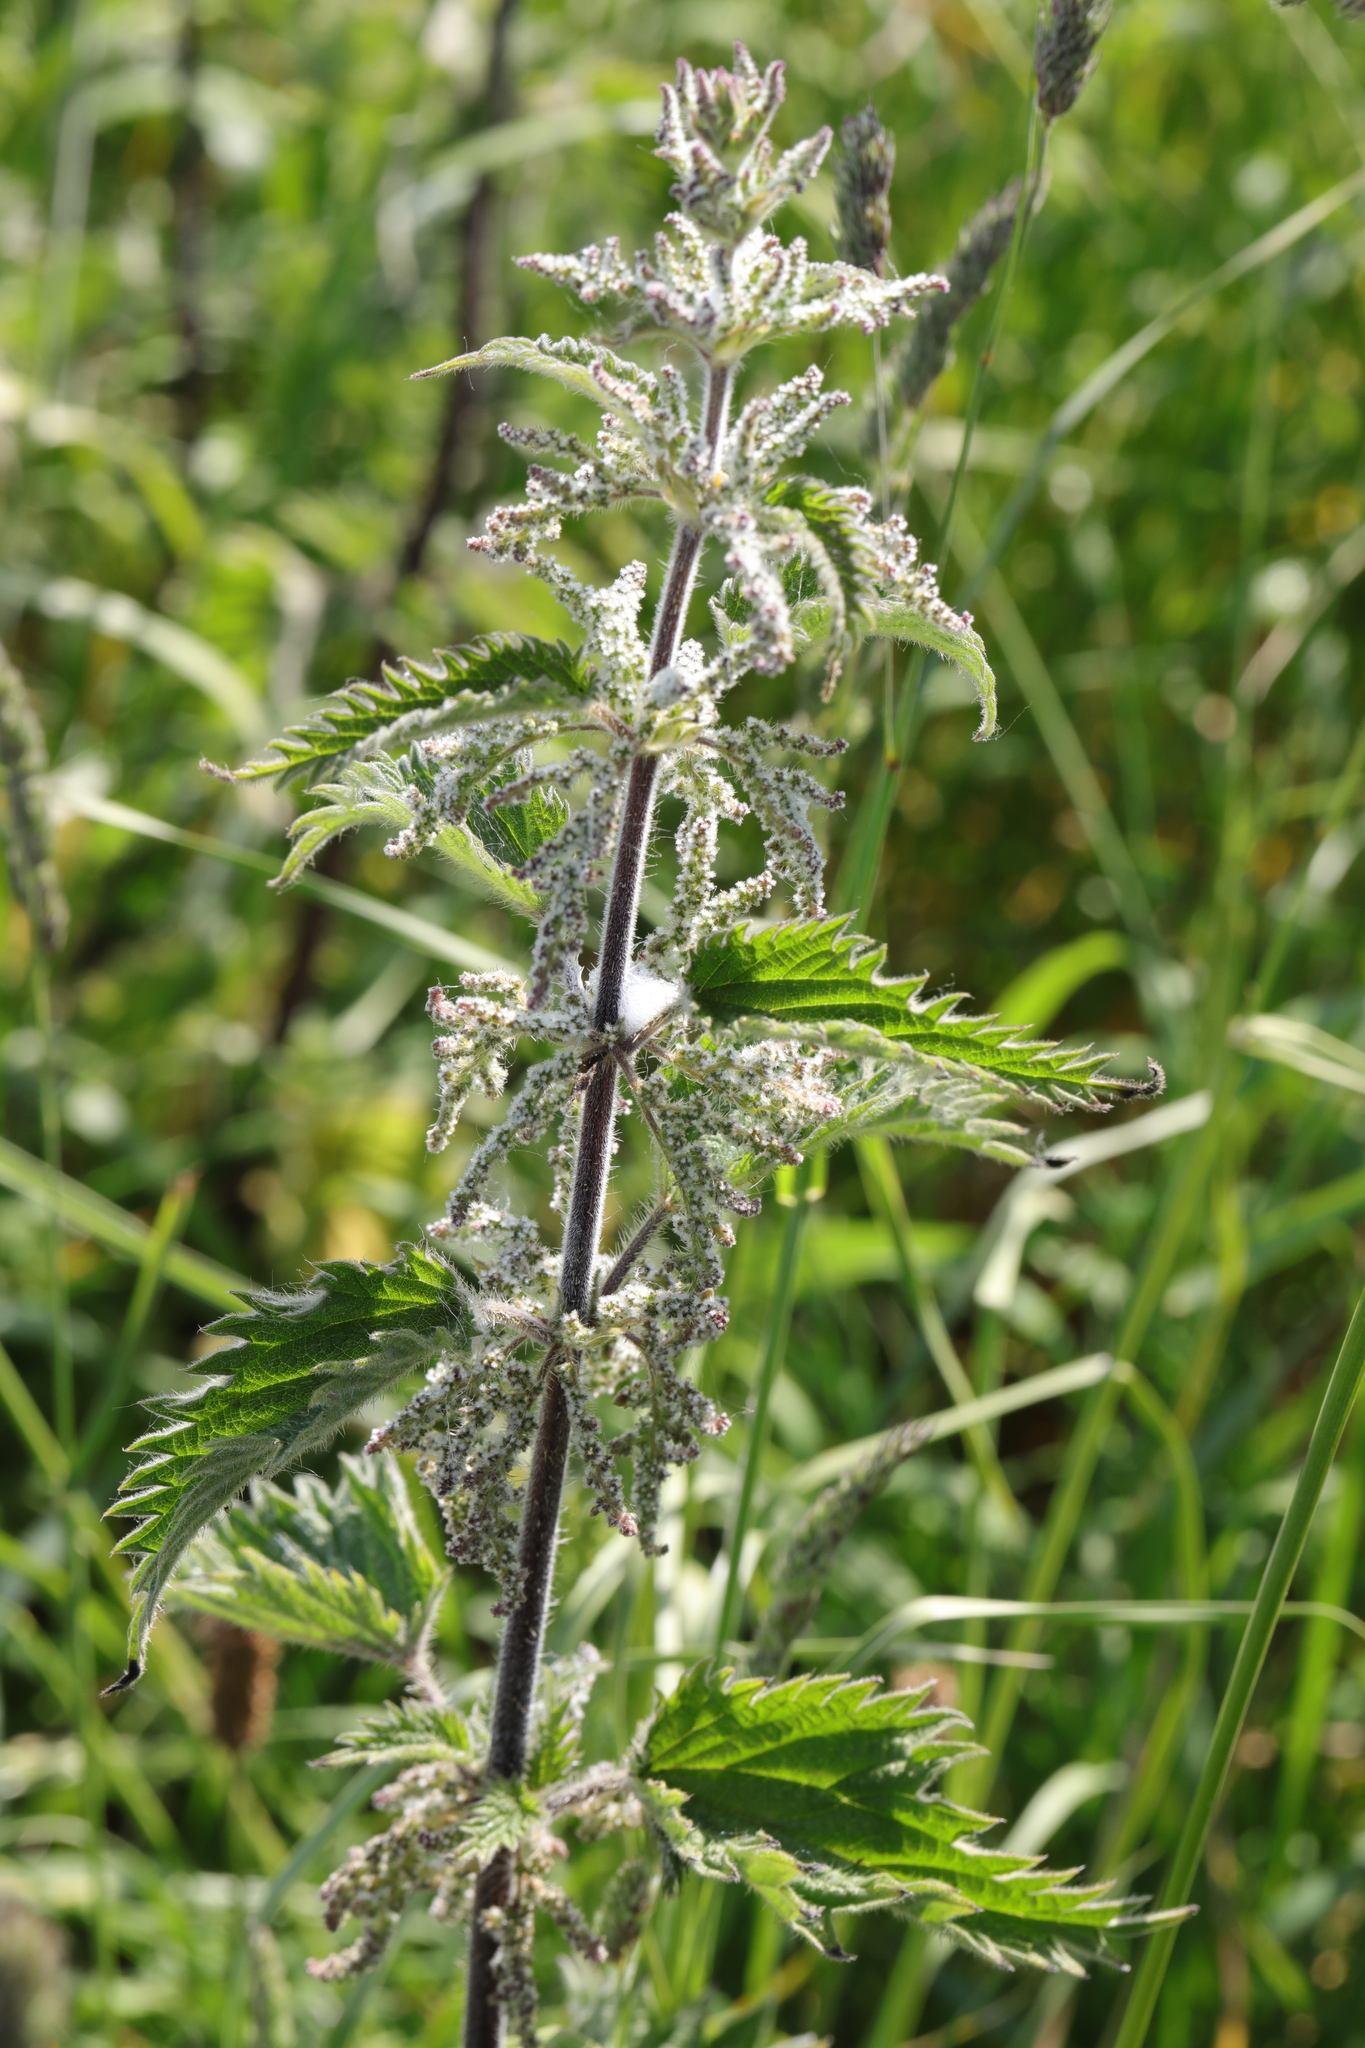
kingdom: Plantae
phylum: Tracheophyta
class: Magnoliopsida
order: Rosales
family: Urticaceae
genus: Urtica
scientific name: Urtica dioica
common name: Common nettle
